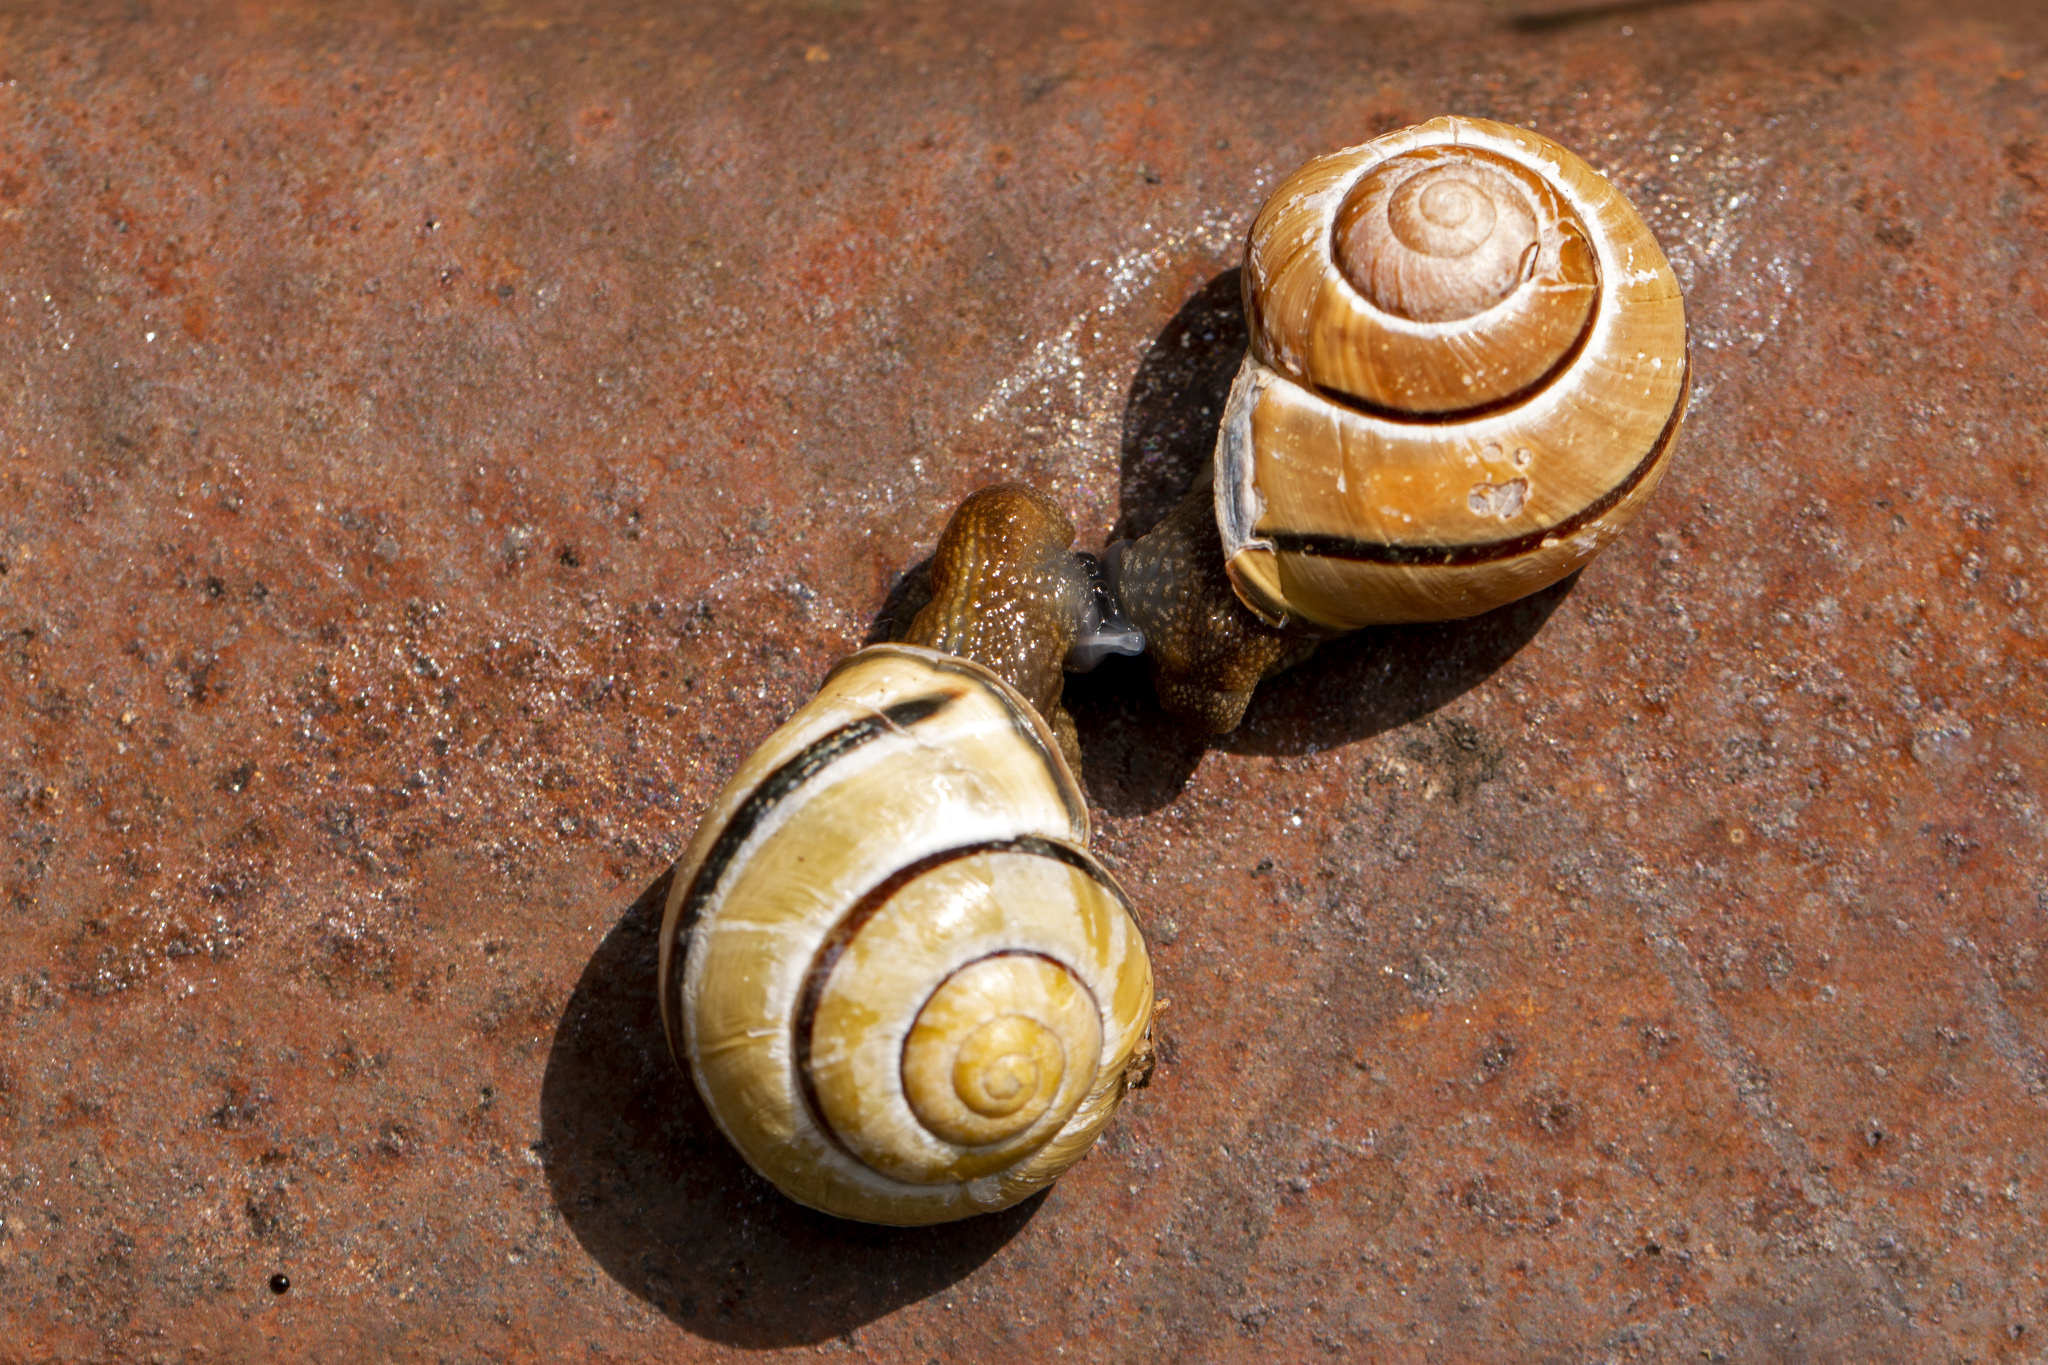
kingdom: Animalia
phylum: Mollusca
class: Gastropoda
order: Stylommatophora
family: Helicidae
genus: Cepaea
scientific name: Cepaea nemoralis
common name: Grovesnail
